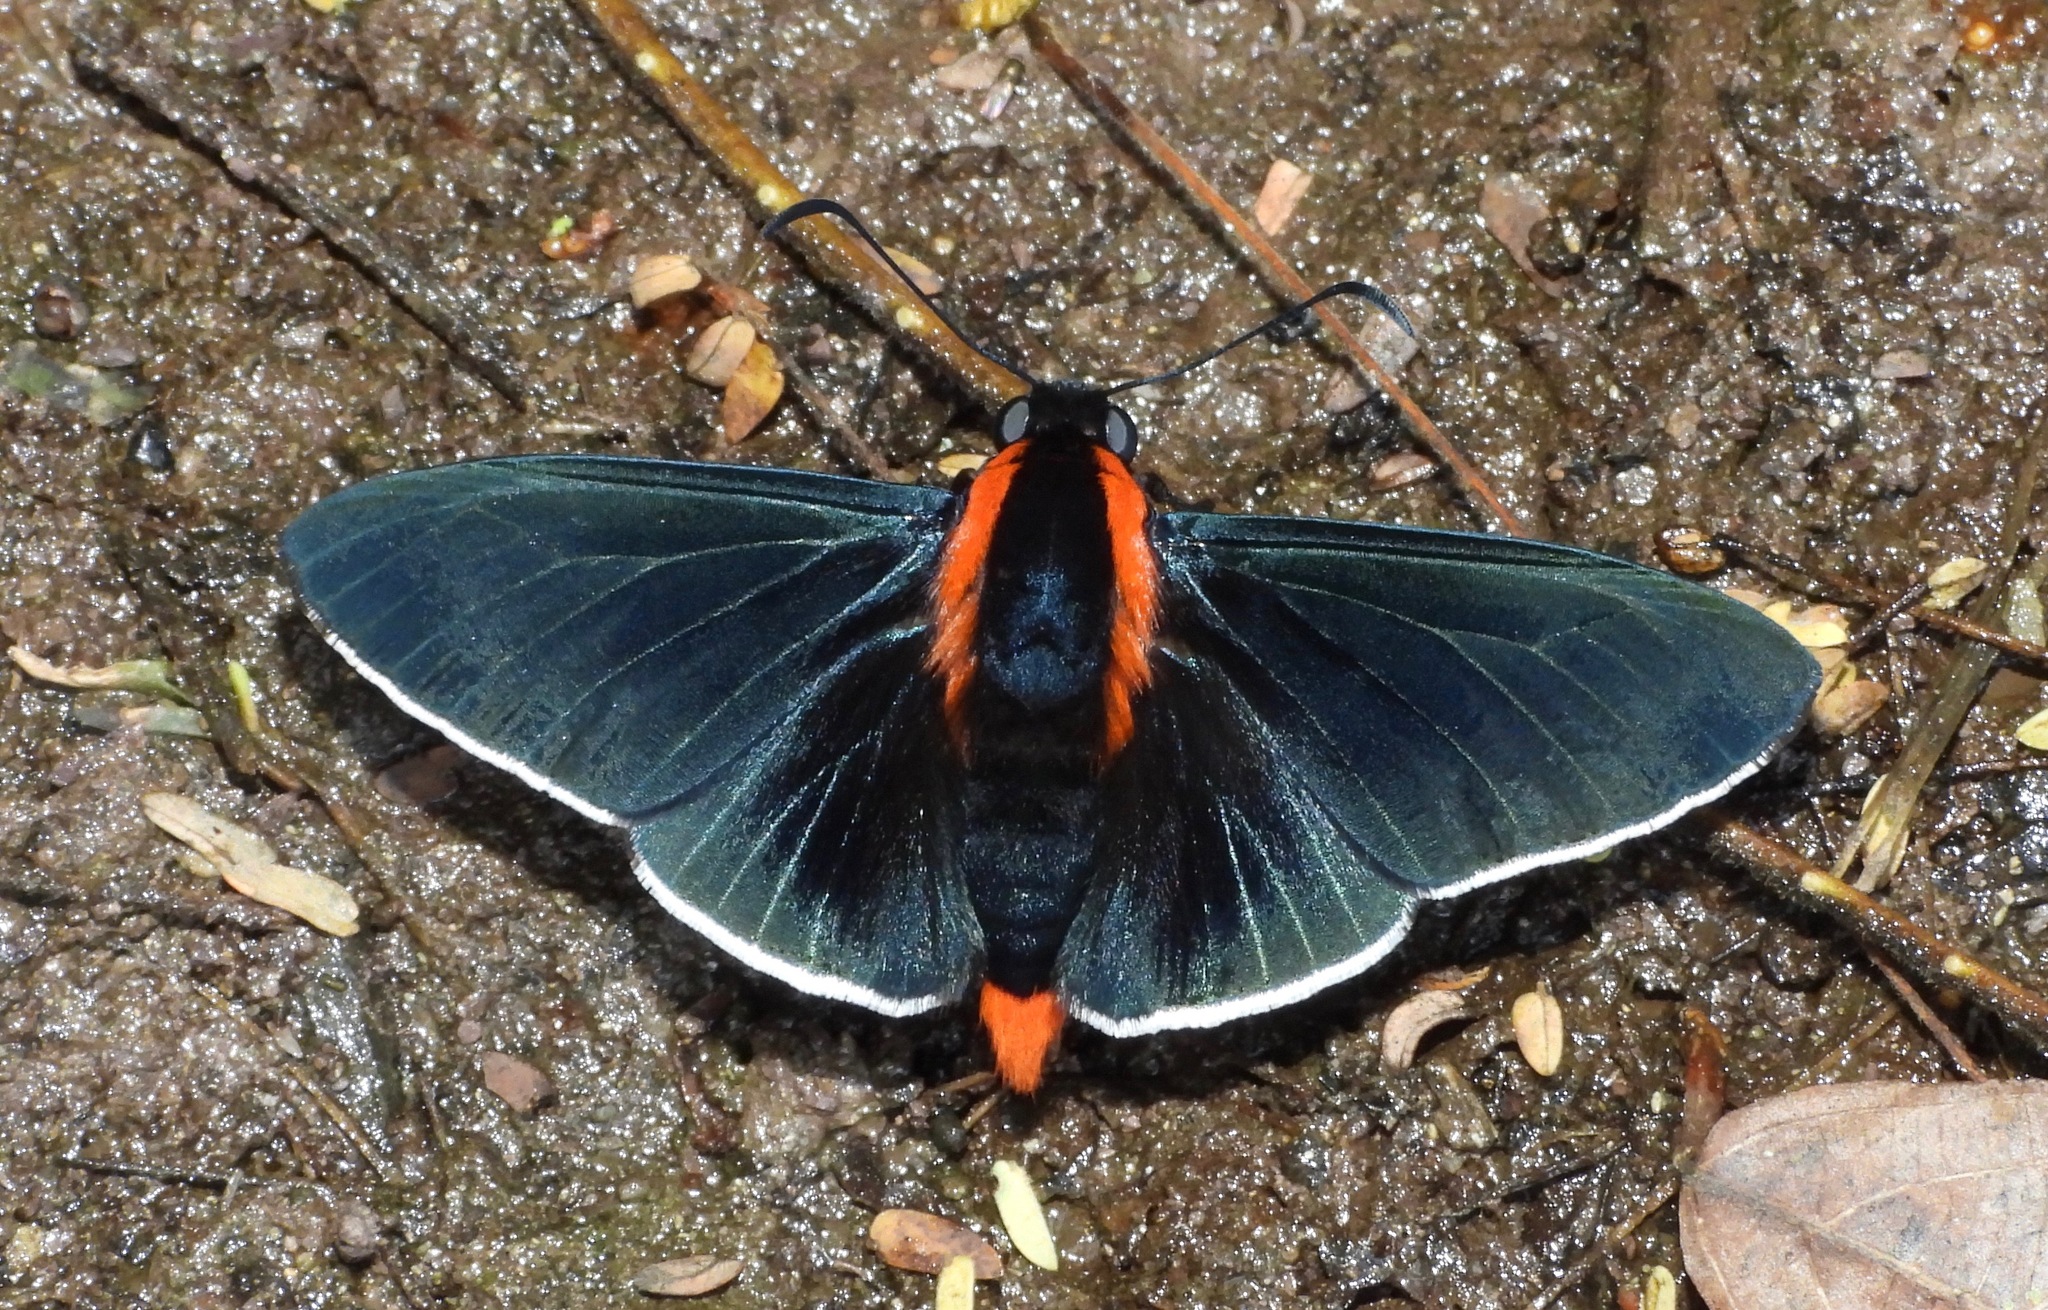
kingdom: Animalia
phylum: Arthropoda
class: Insecta
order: Lepidoptera
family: Hesperiidae
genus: Pyrrhopyge
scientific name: Pyrrhopyge papius
